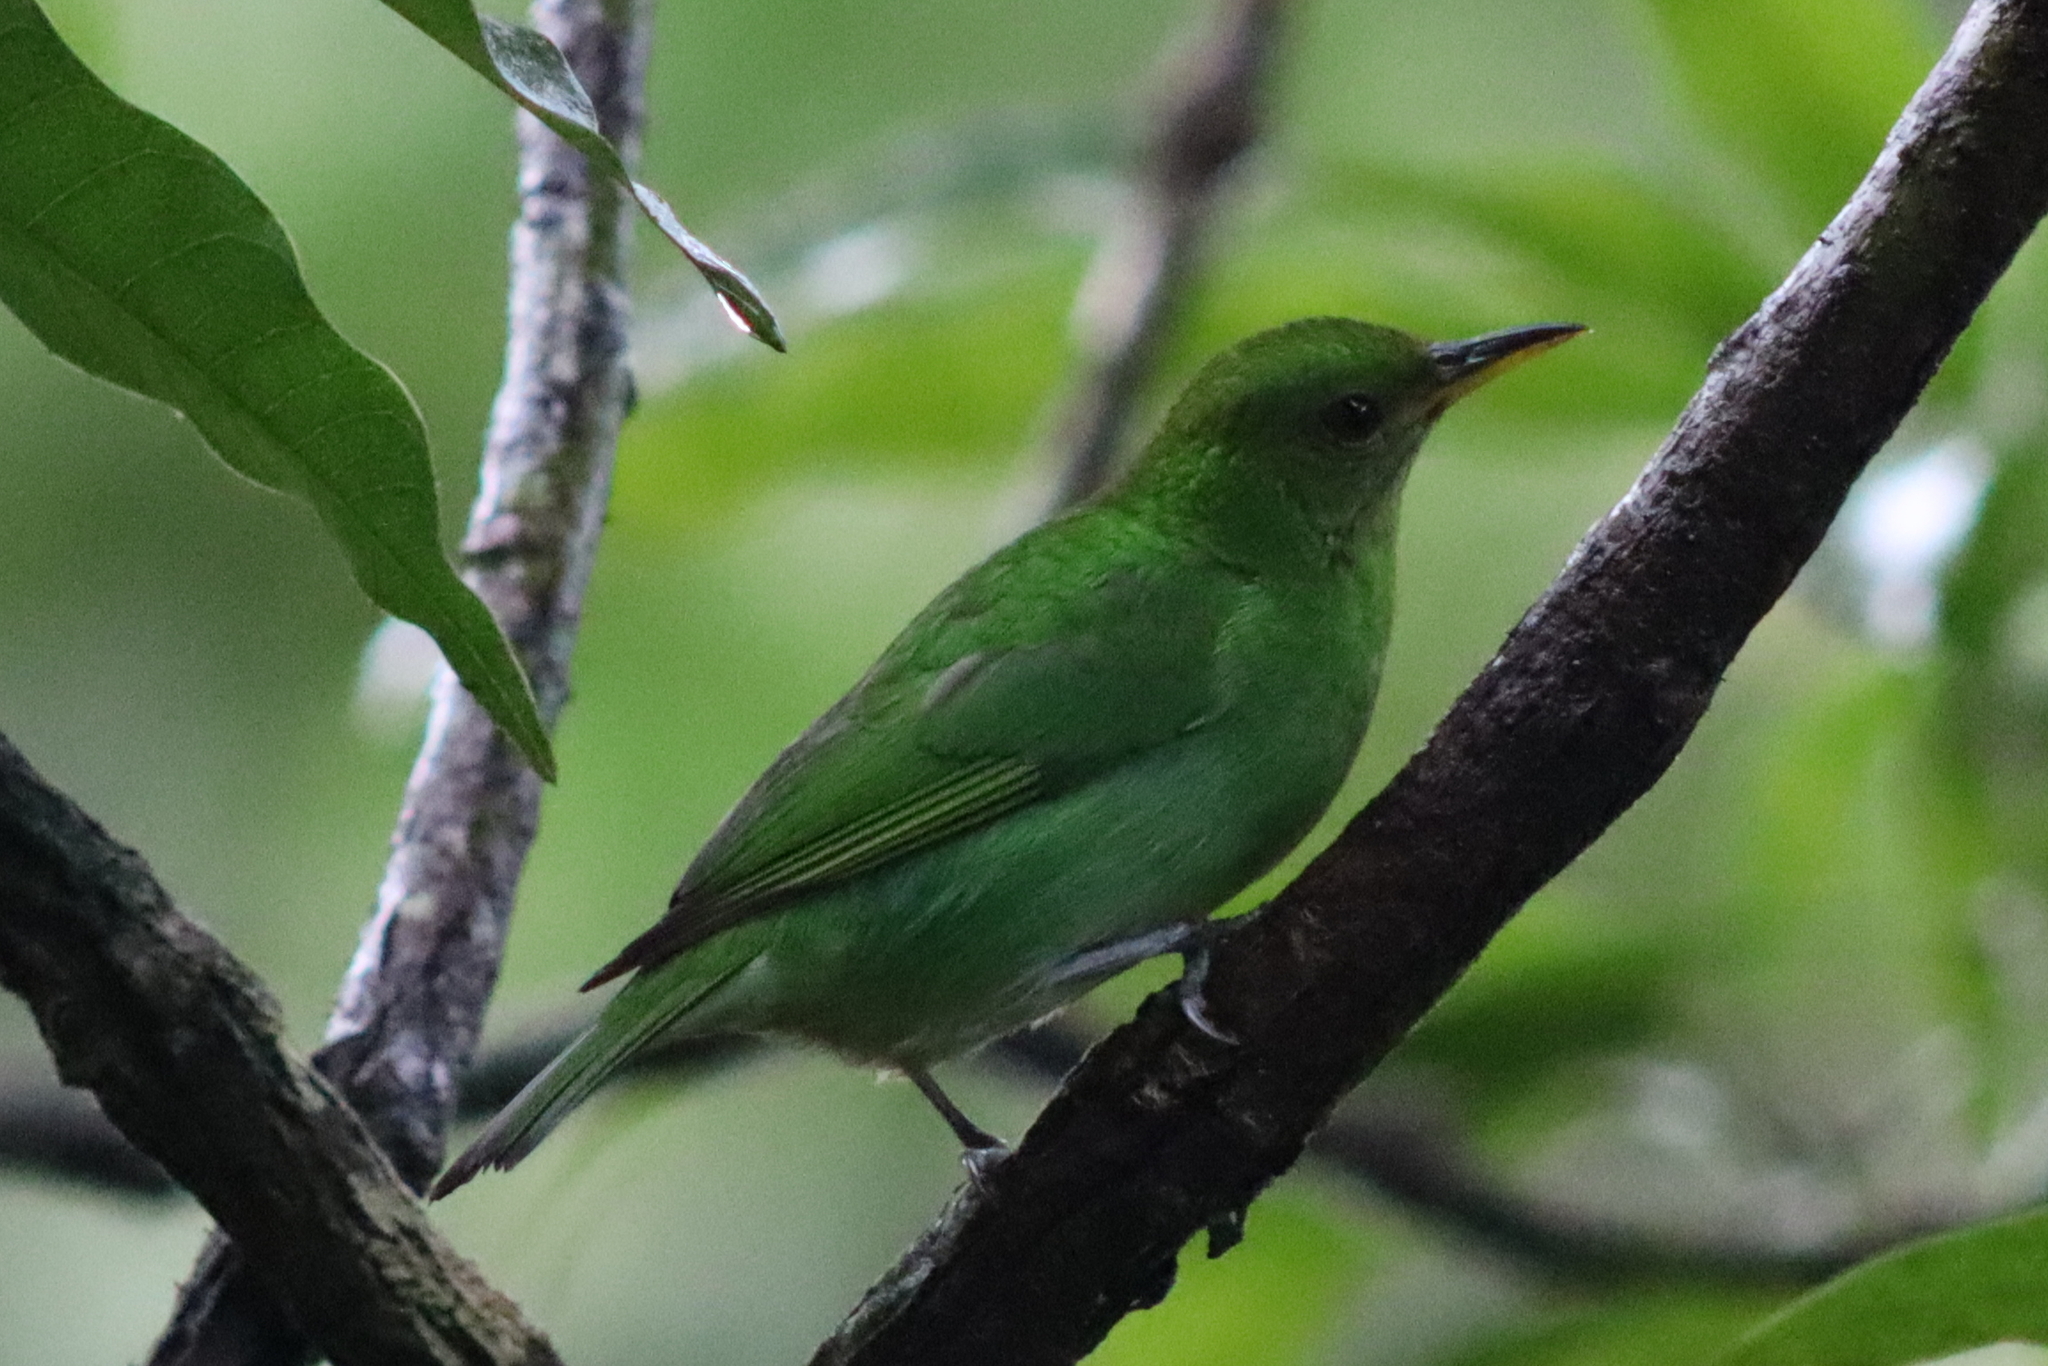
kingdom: Animalia
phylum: Chordata
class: Aves
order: Passeriformes
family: Thraupidae
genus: Chlorophanes
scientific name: Chlorophanes spiza
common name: Green honeycreeper
